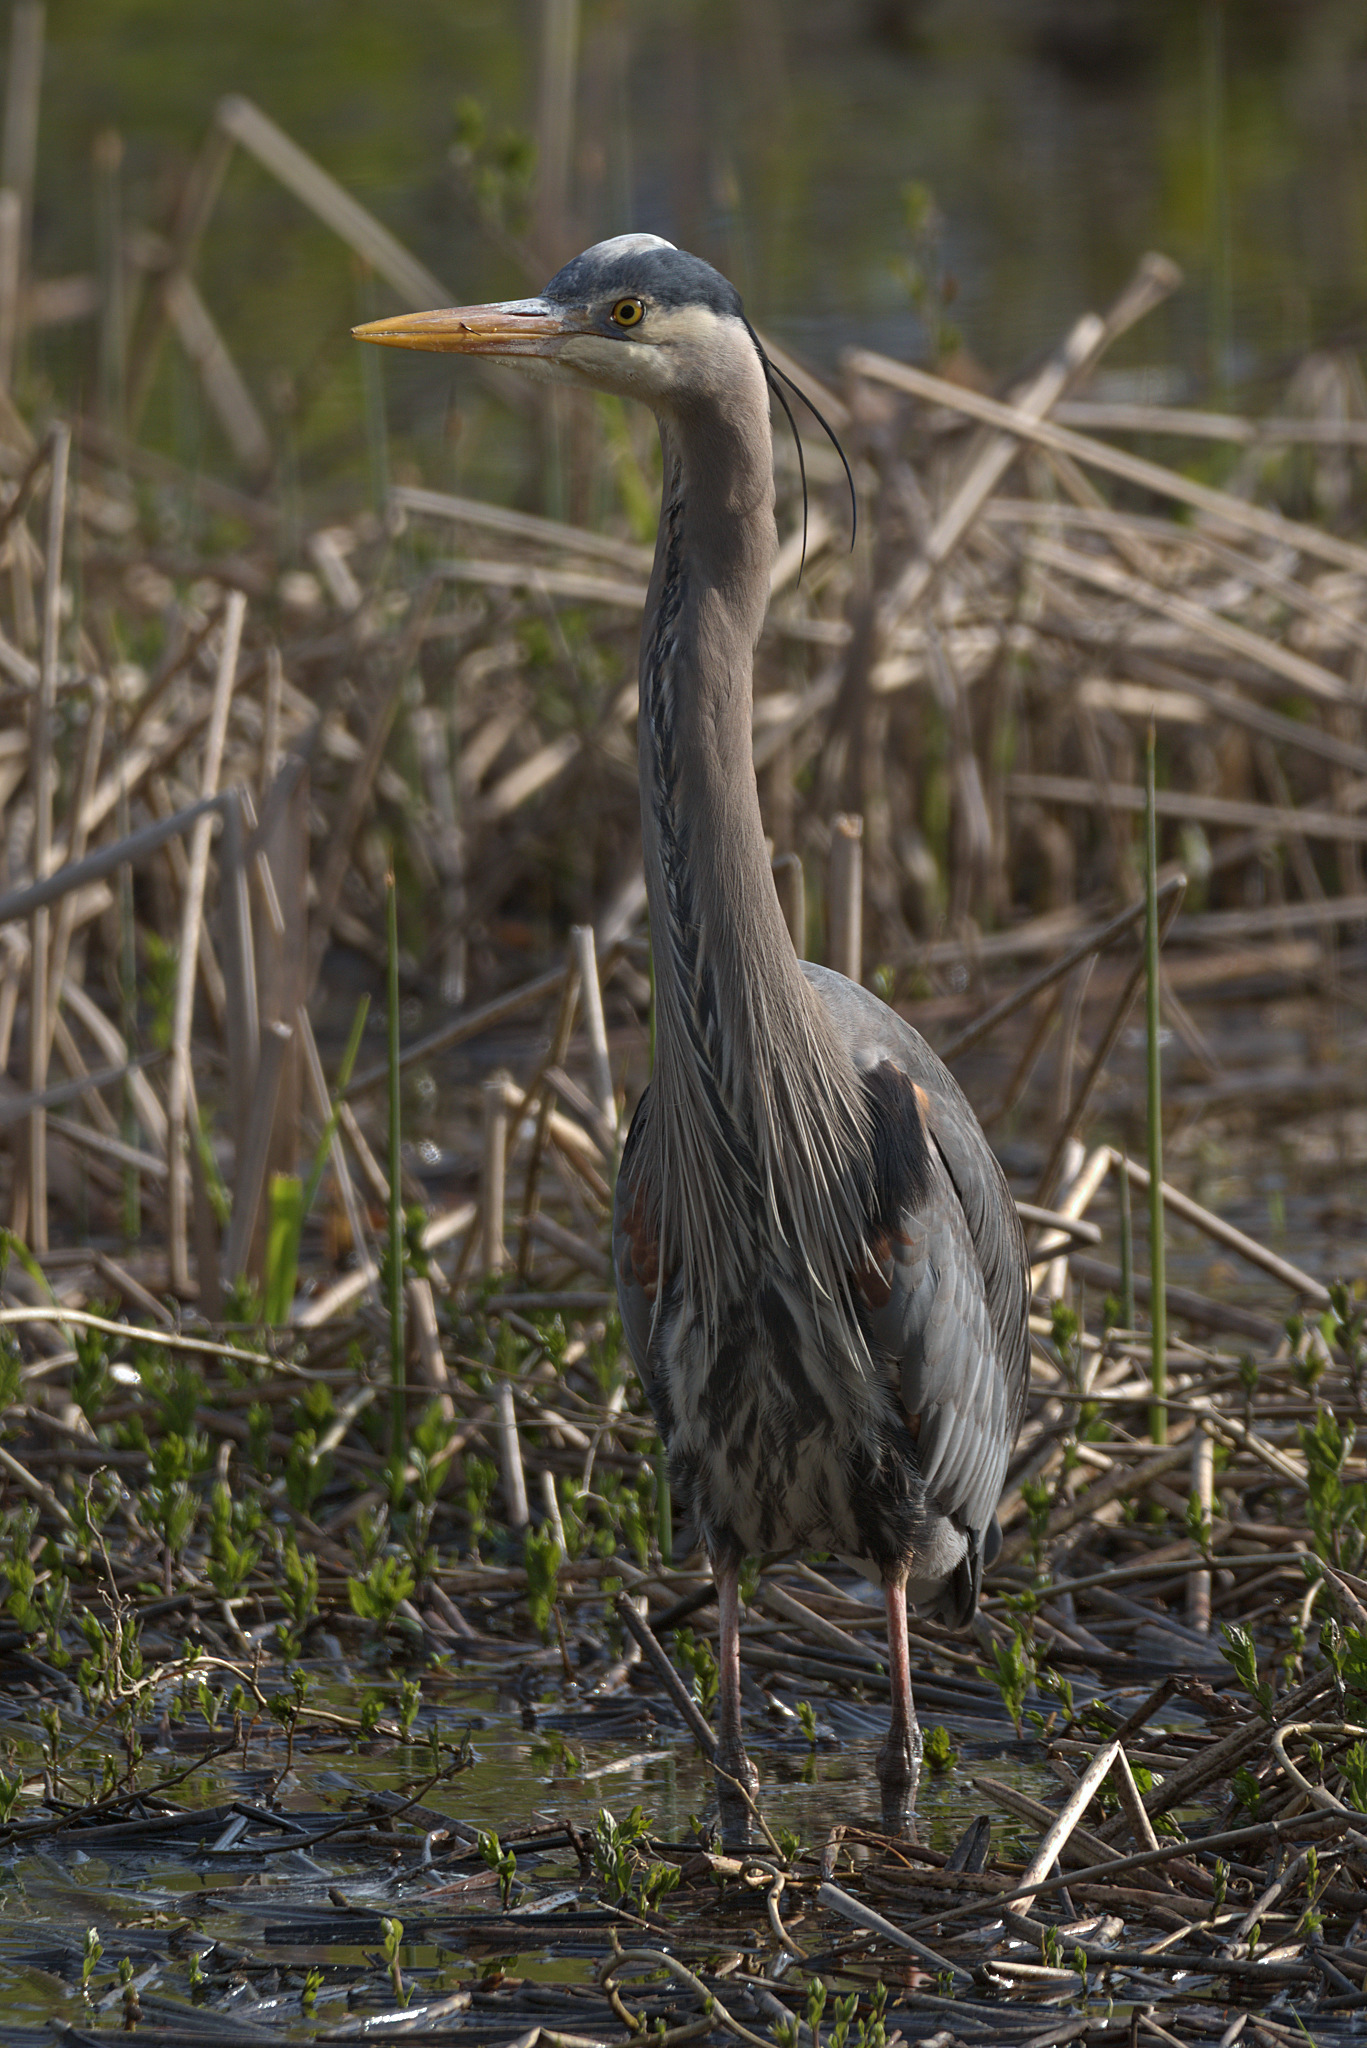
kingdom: Animalia
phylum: Chordata
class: Aves
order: Pelecaniformes
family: Ardeidae
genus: Ardea
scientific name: Ardea herodias
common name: Great blue heron
